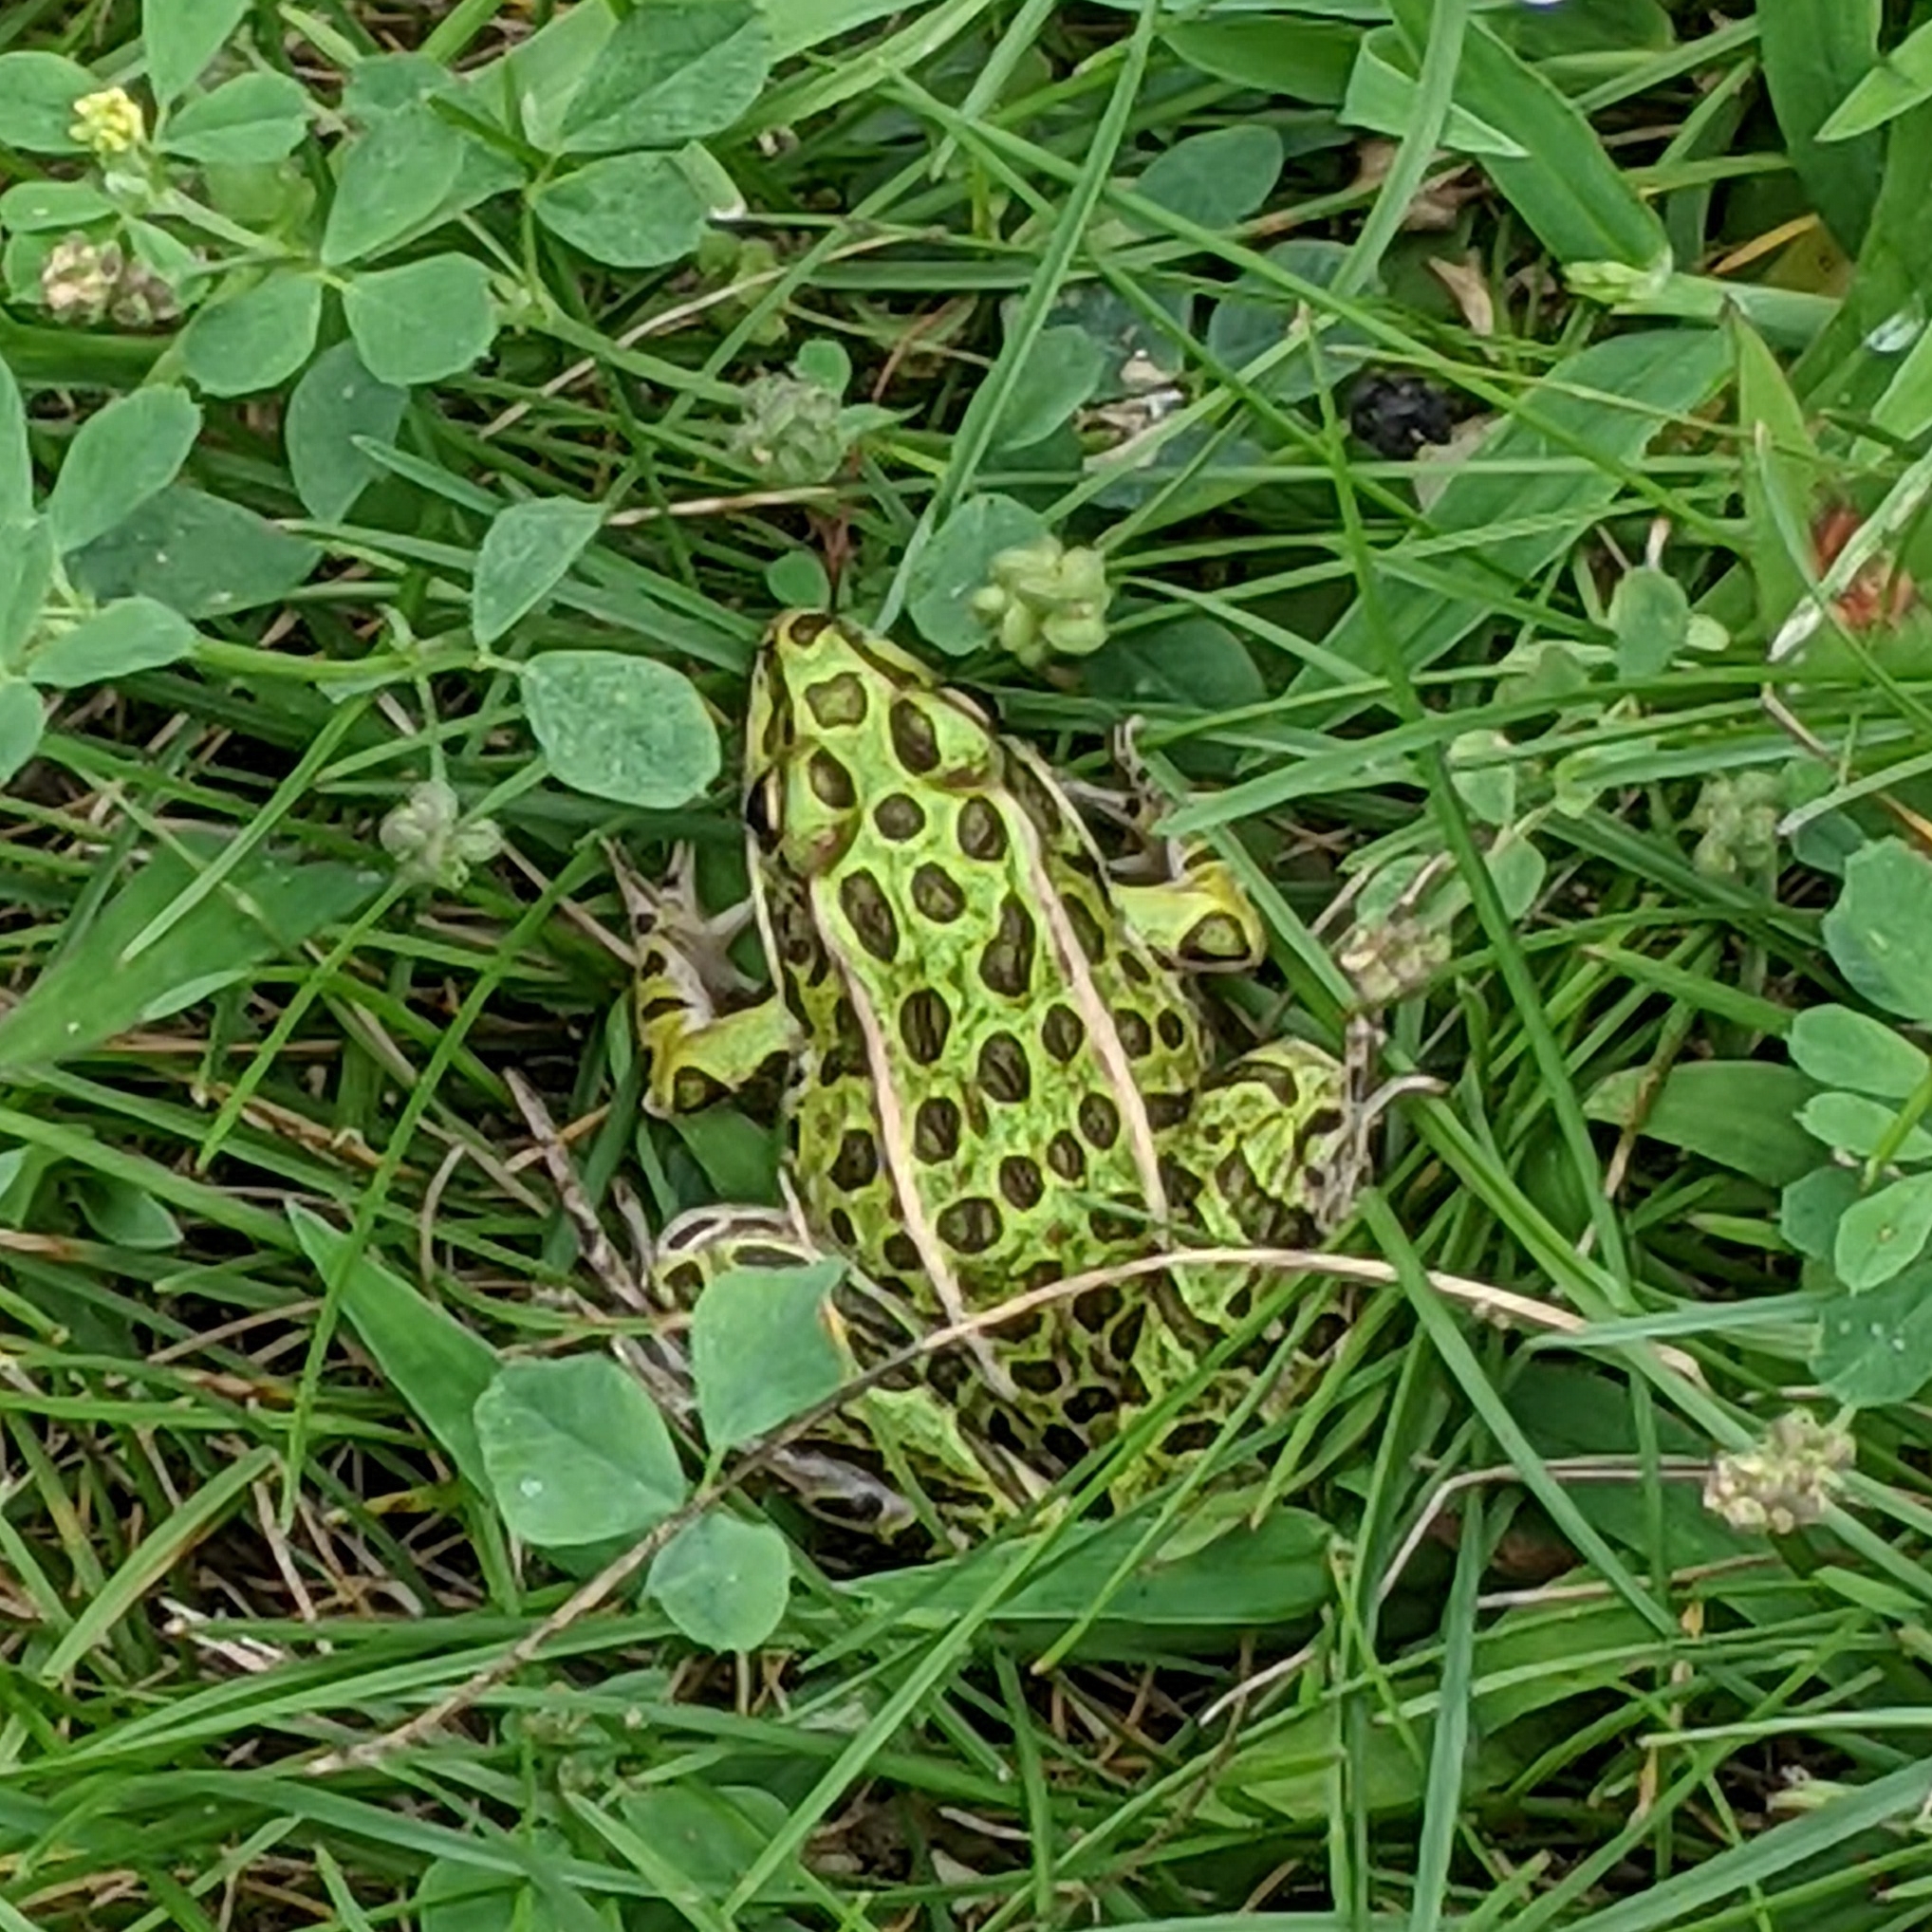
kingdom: Animalia
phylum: Chordata
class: Amphibia
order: Anura
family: Ranidae
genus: Lithobates
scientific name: Lithobates pipiens
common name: Northern leopard frog
